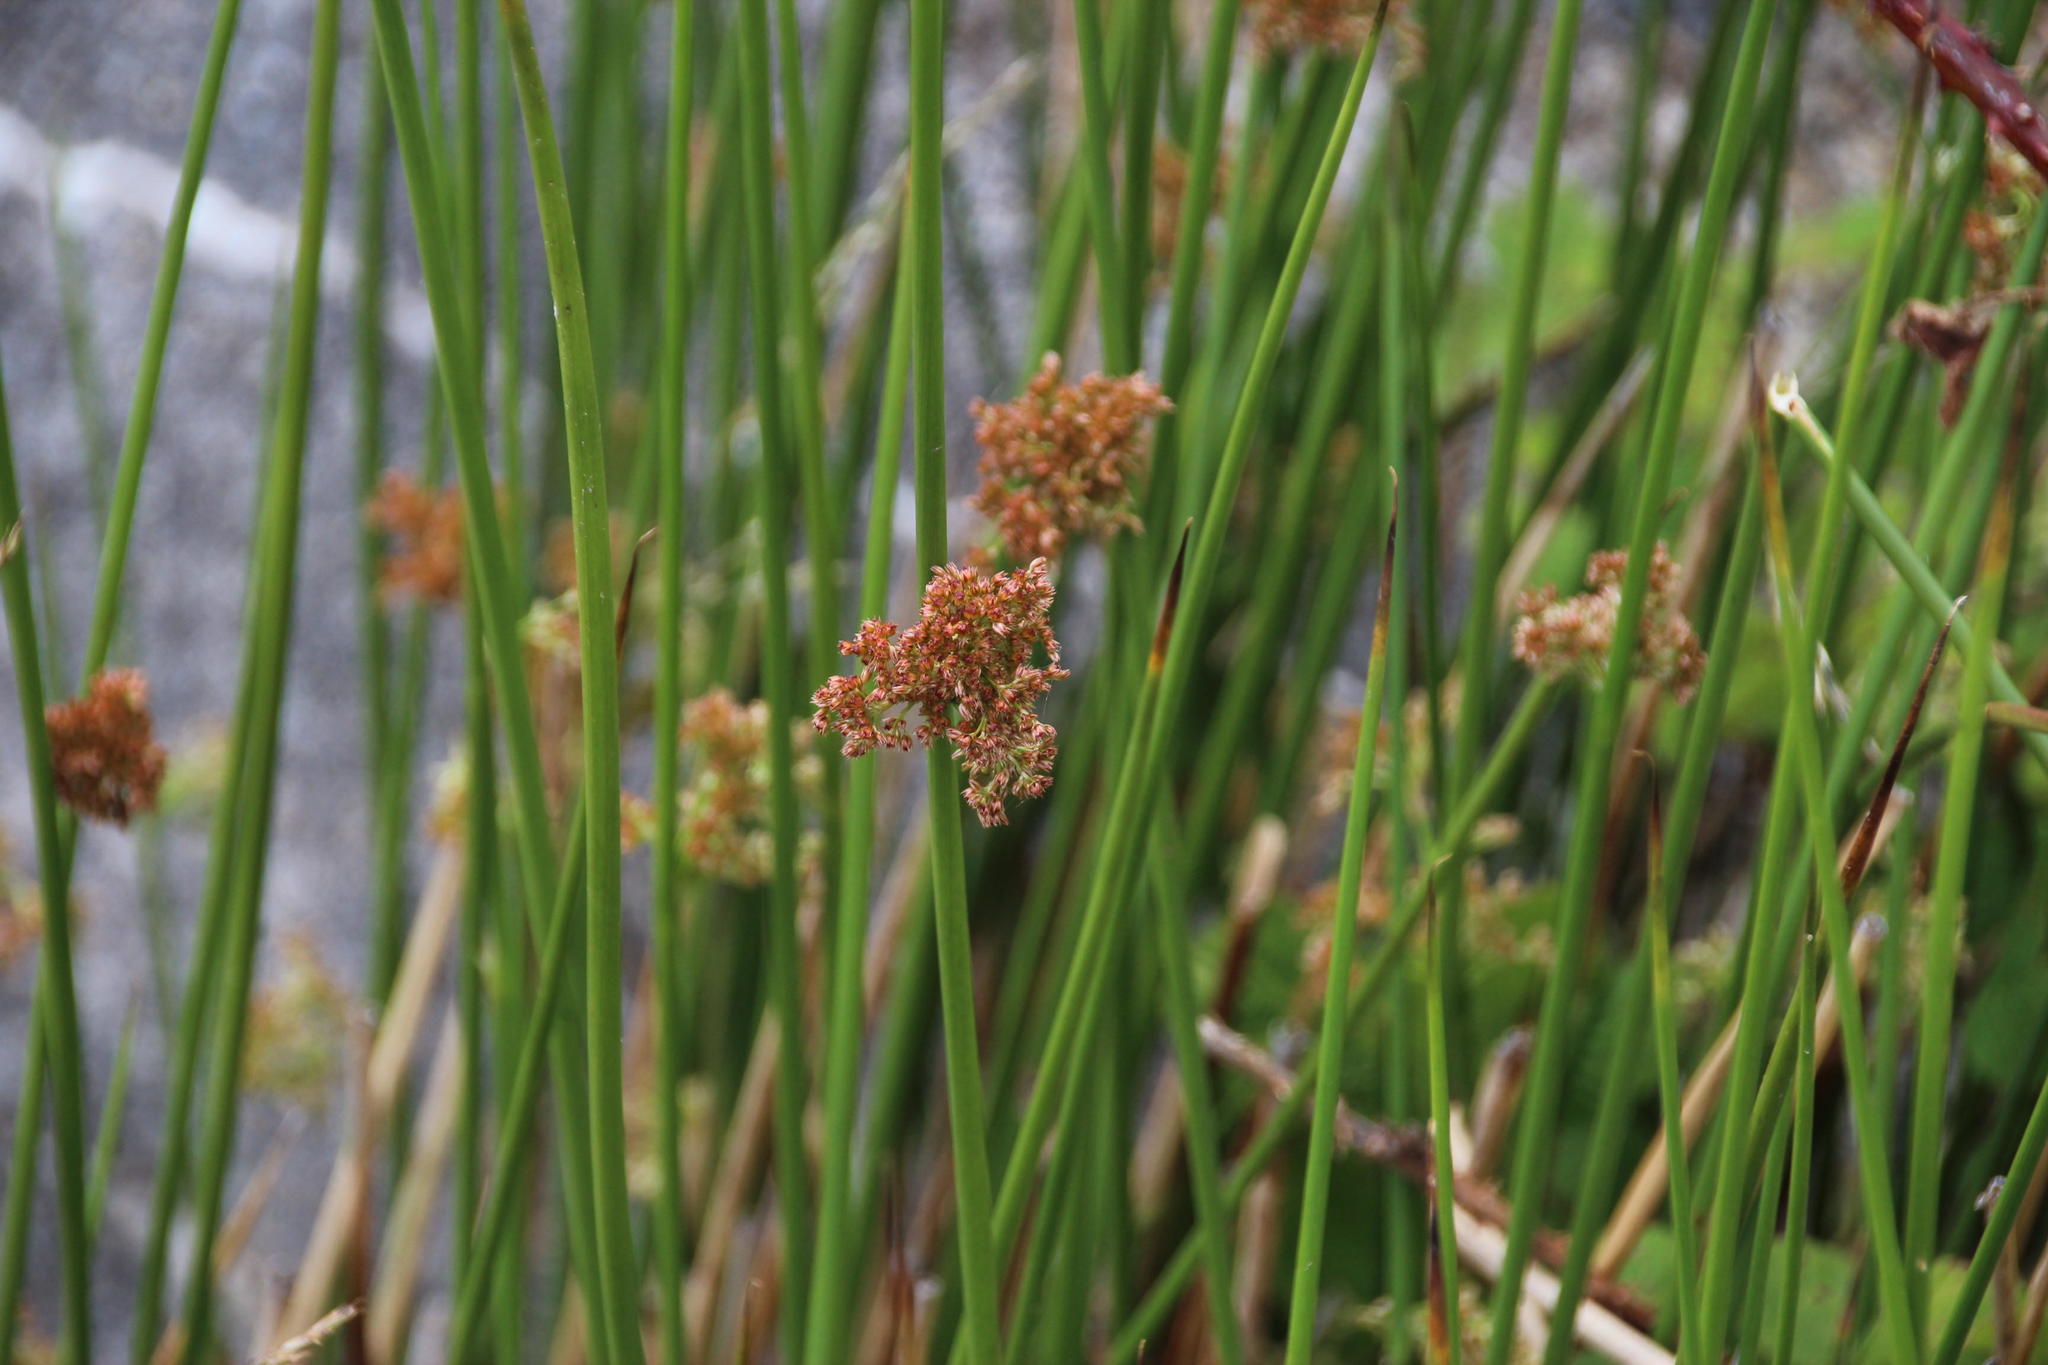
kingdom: Plantae
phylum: Tracheophyta
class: Liliopsida
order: Poales
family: Juncaceae
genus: Juncus
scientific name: Juncus effusus
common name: Soft rush
